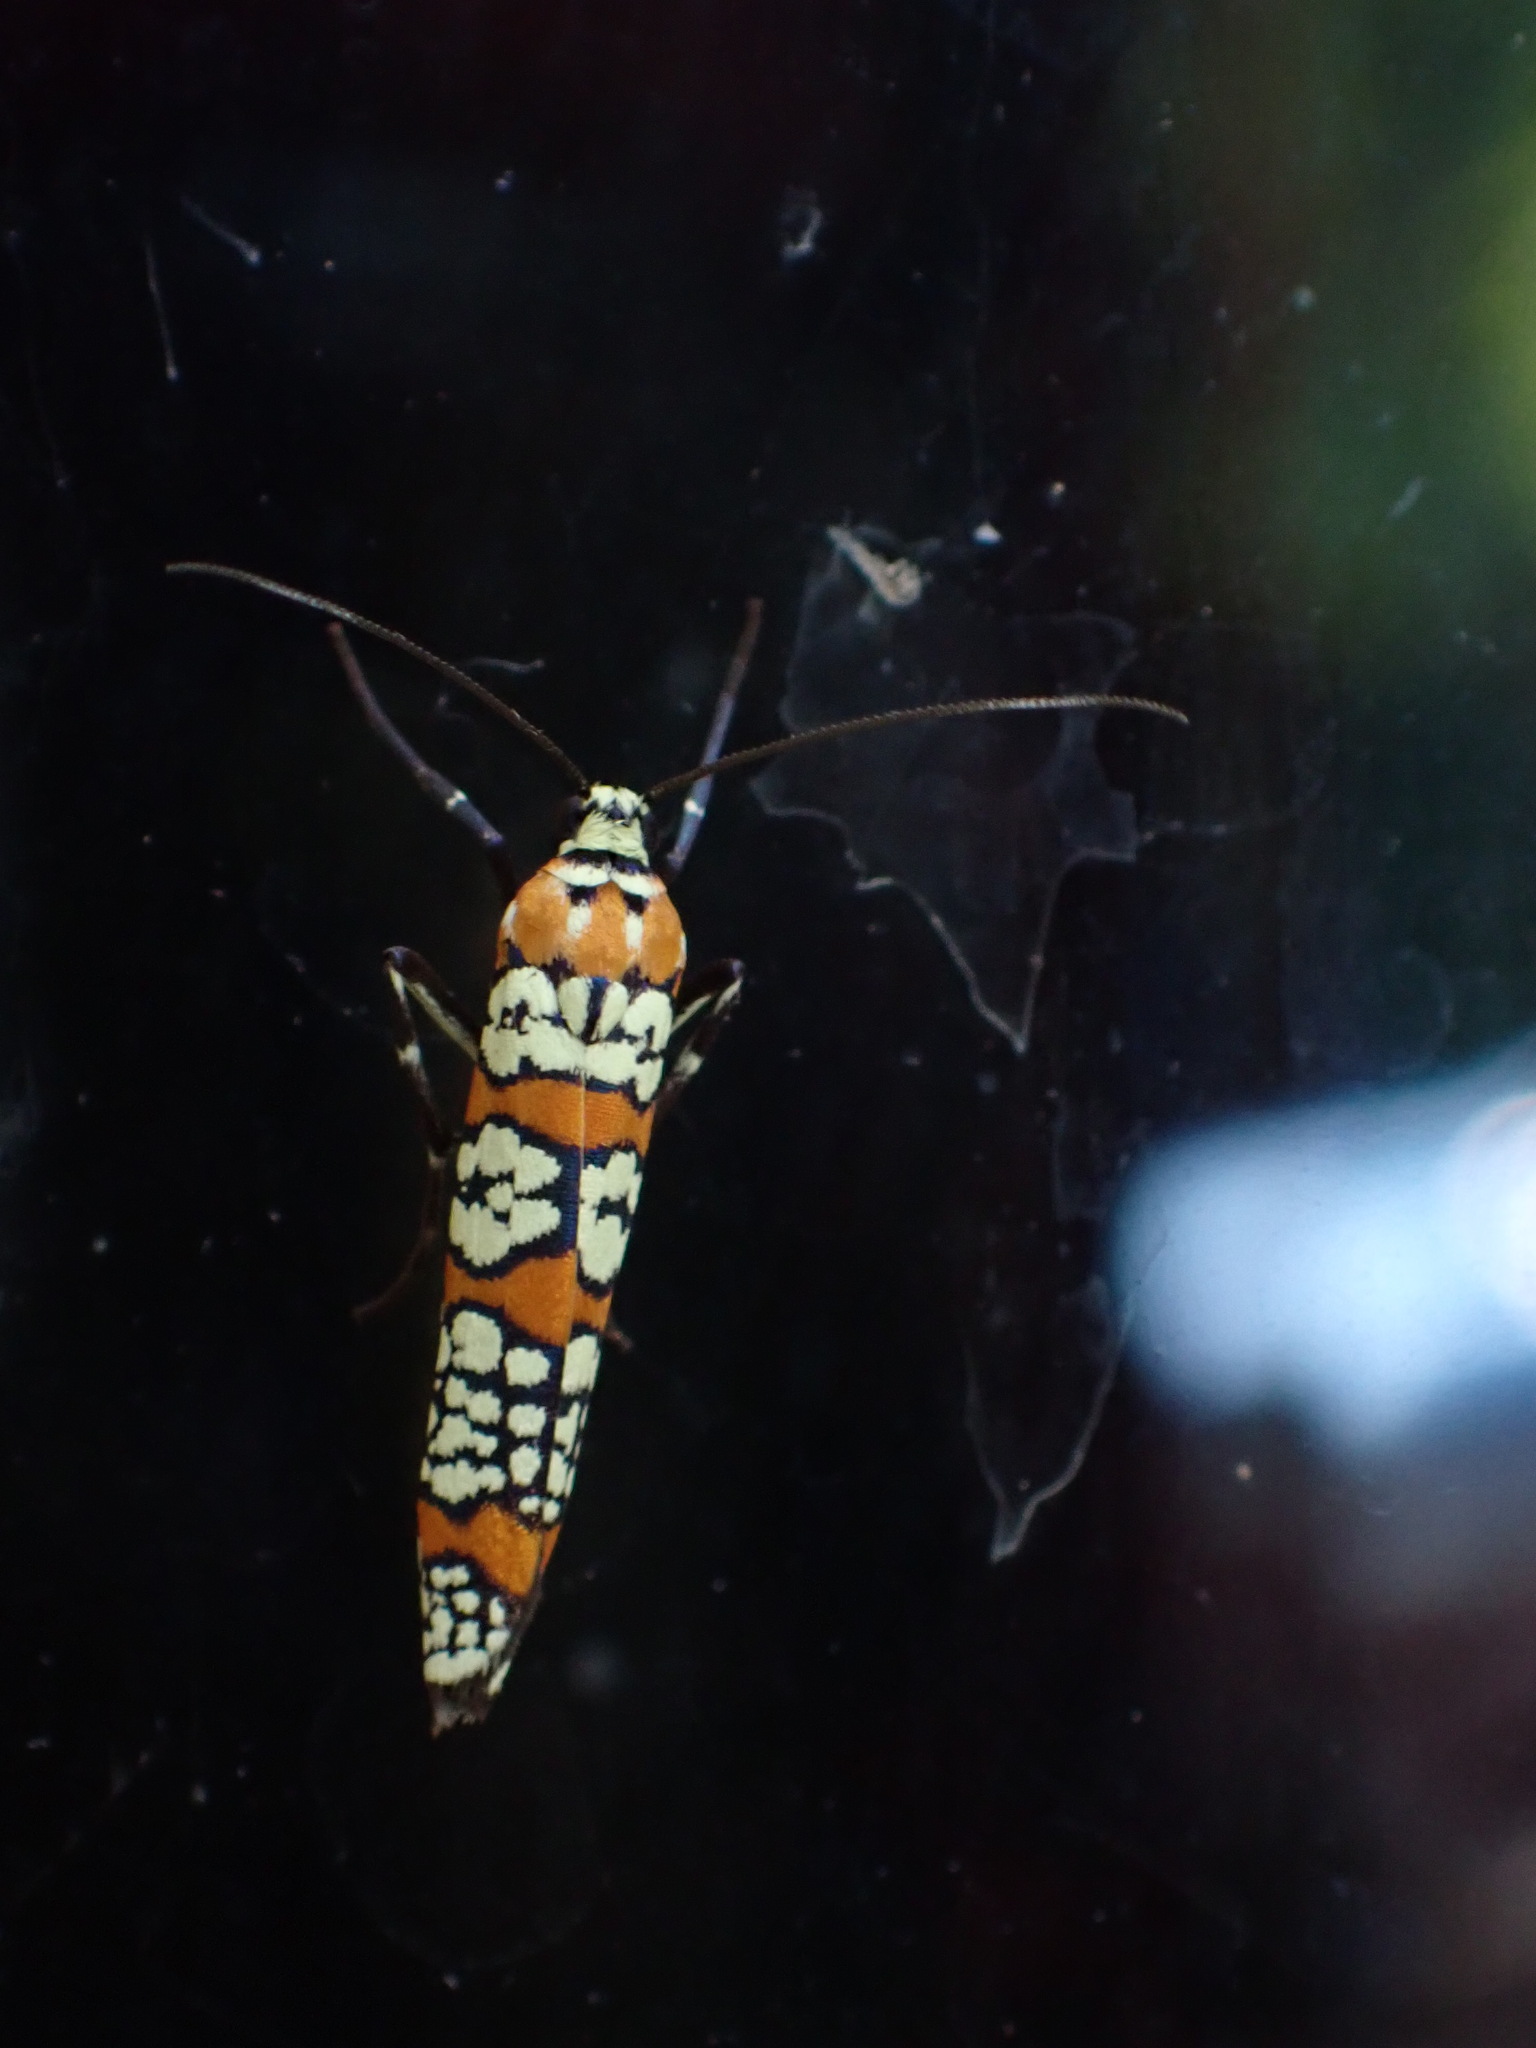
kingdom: Animalia
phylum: Arthropoda
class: Insecta
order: Lepidoptera
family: Attevidae
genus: Atteva
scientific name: Atteva punctella
